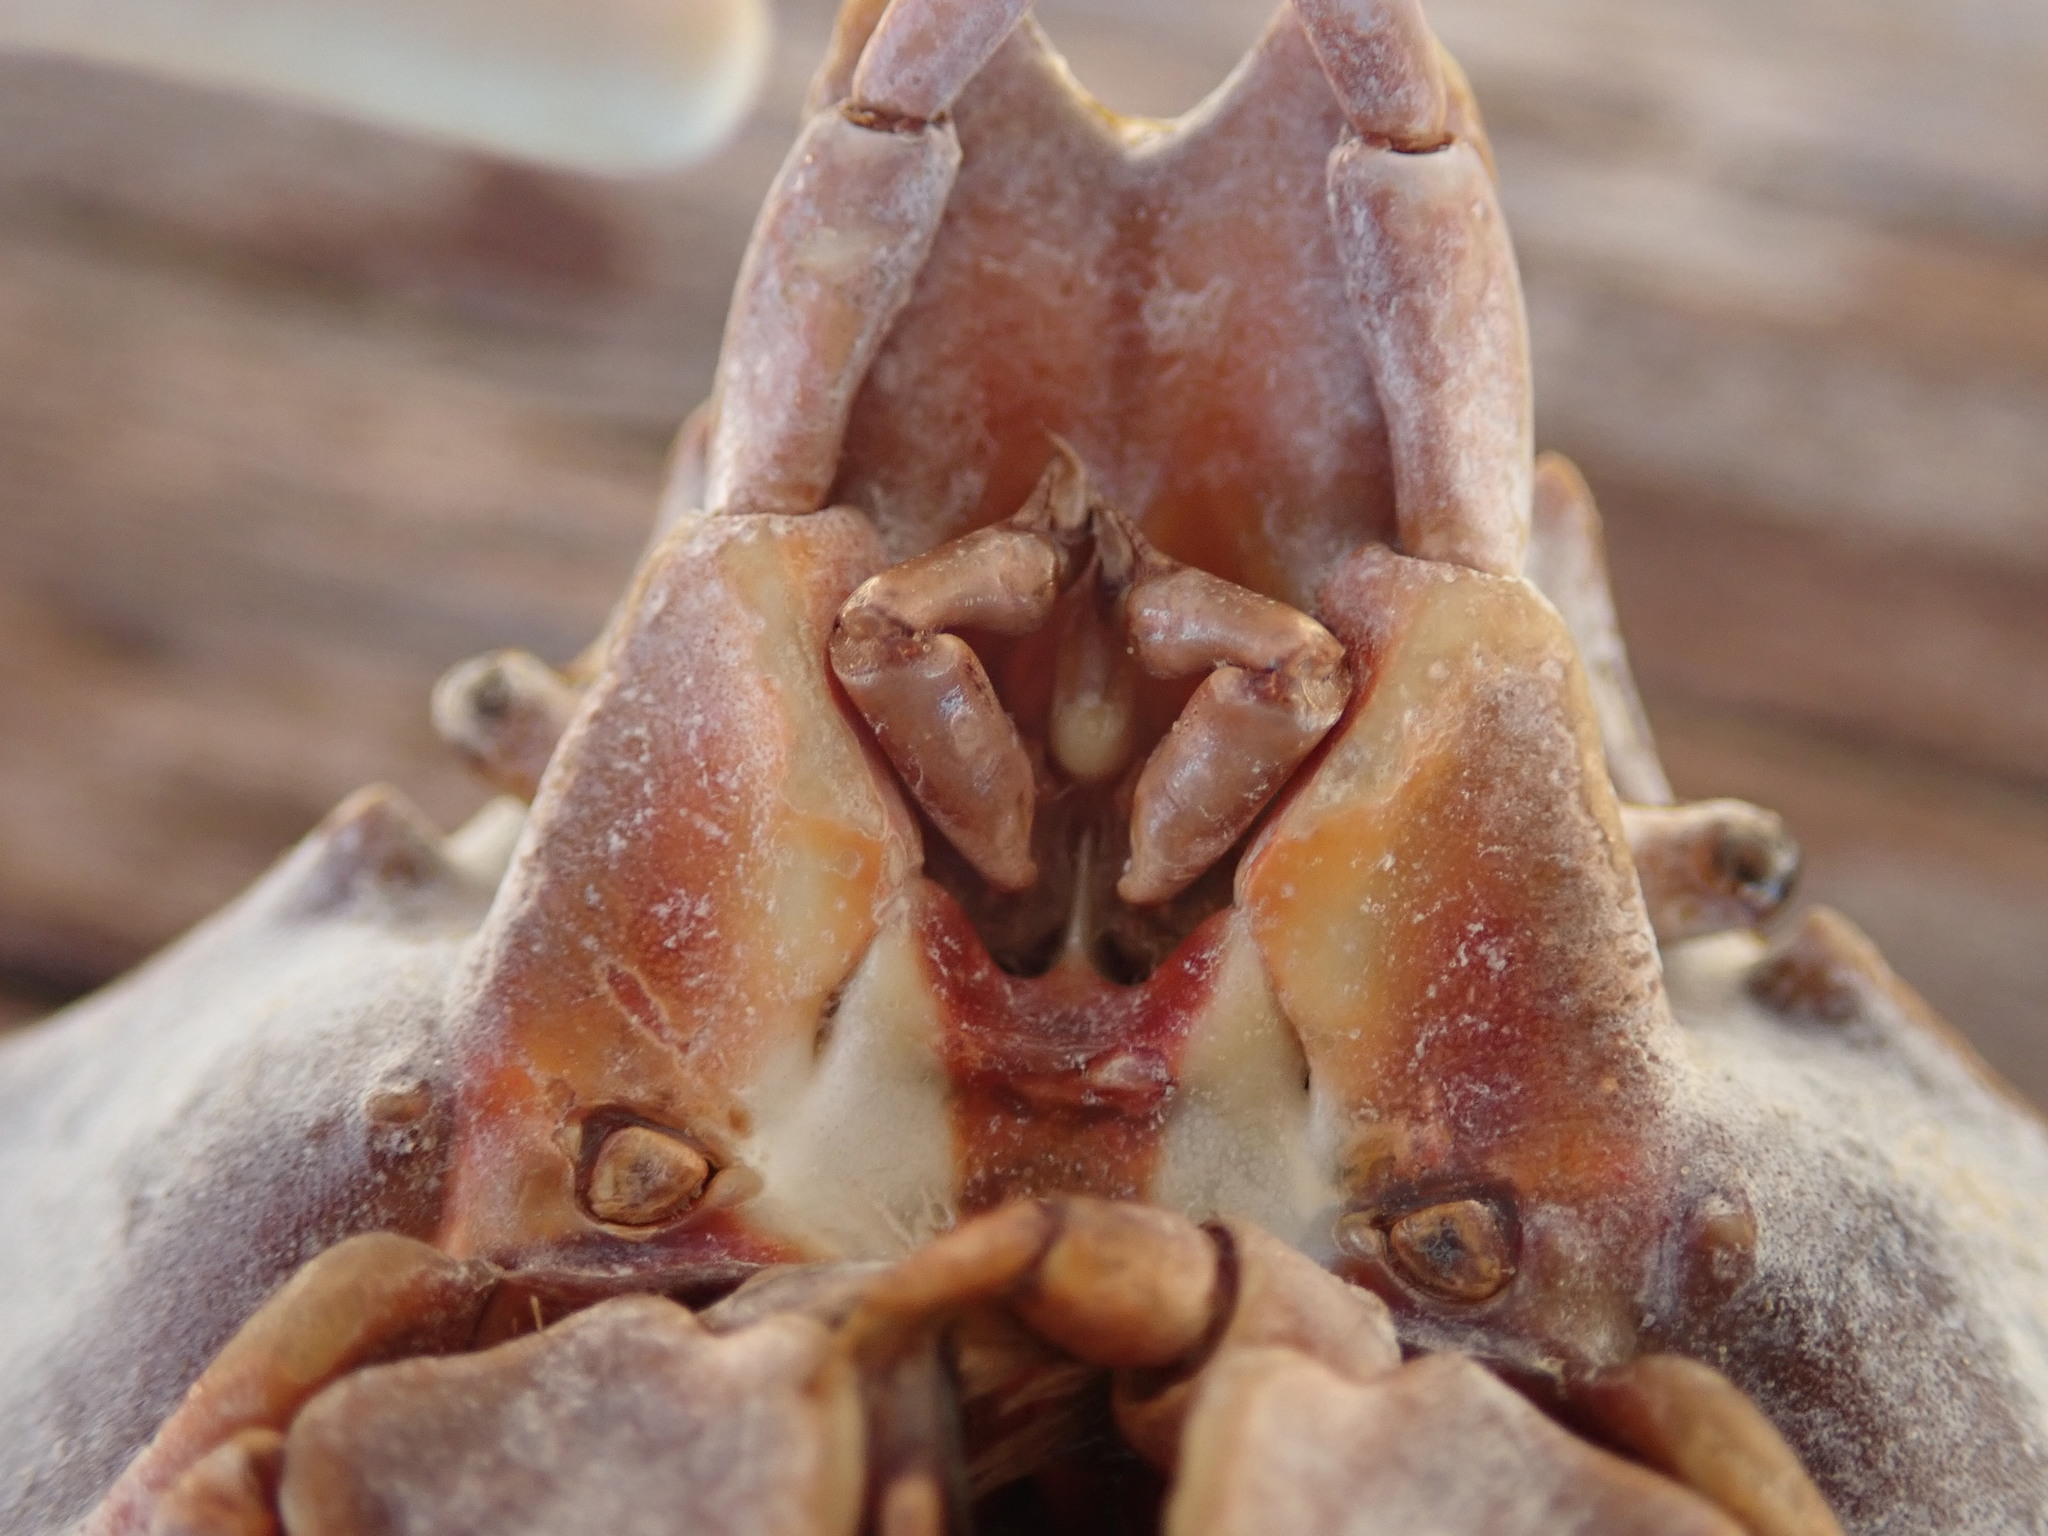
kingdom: Animalia
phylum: Arthropoda
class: Malacostraca
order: Decapoda
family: Epialtidae
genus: Pugettia
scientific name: Pugettia producta
